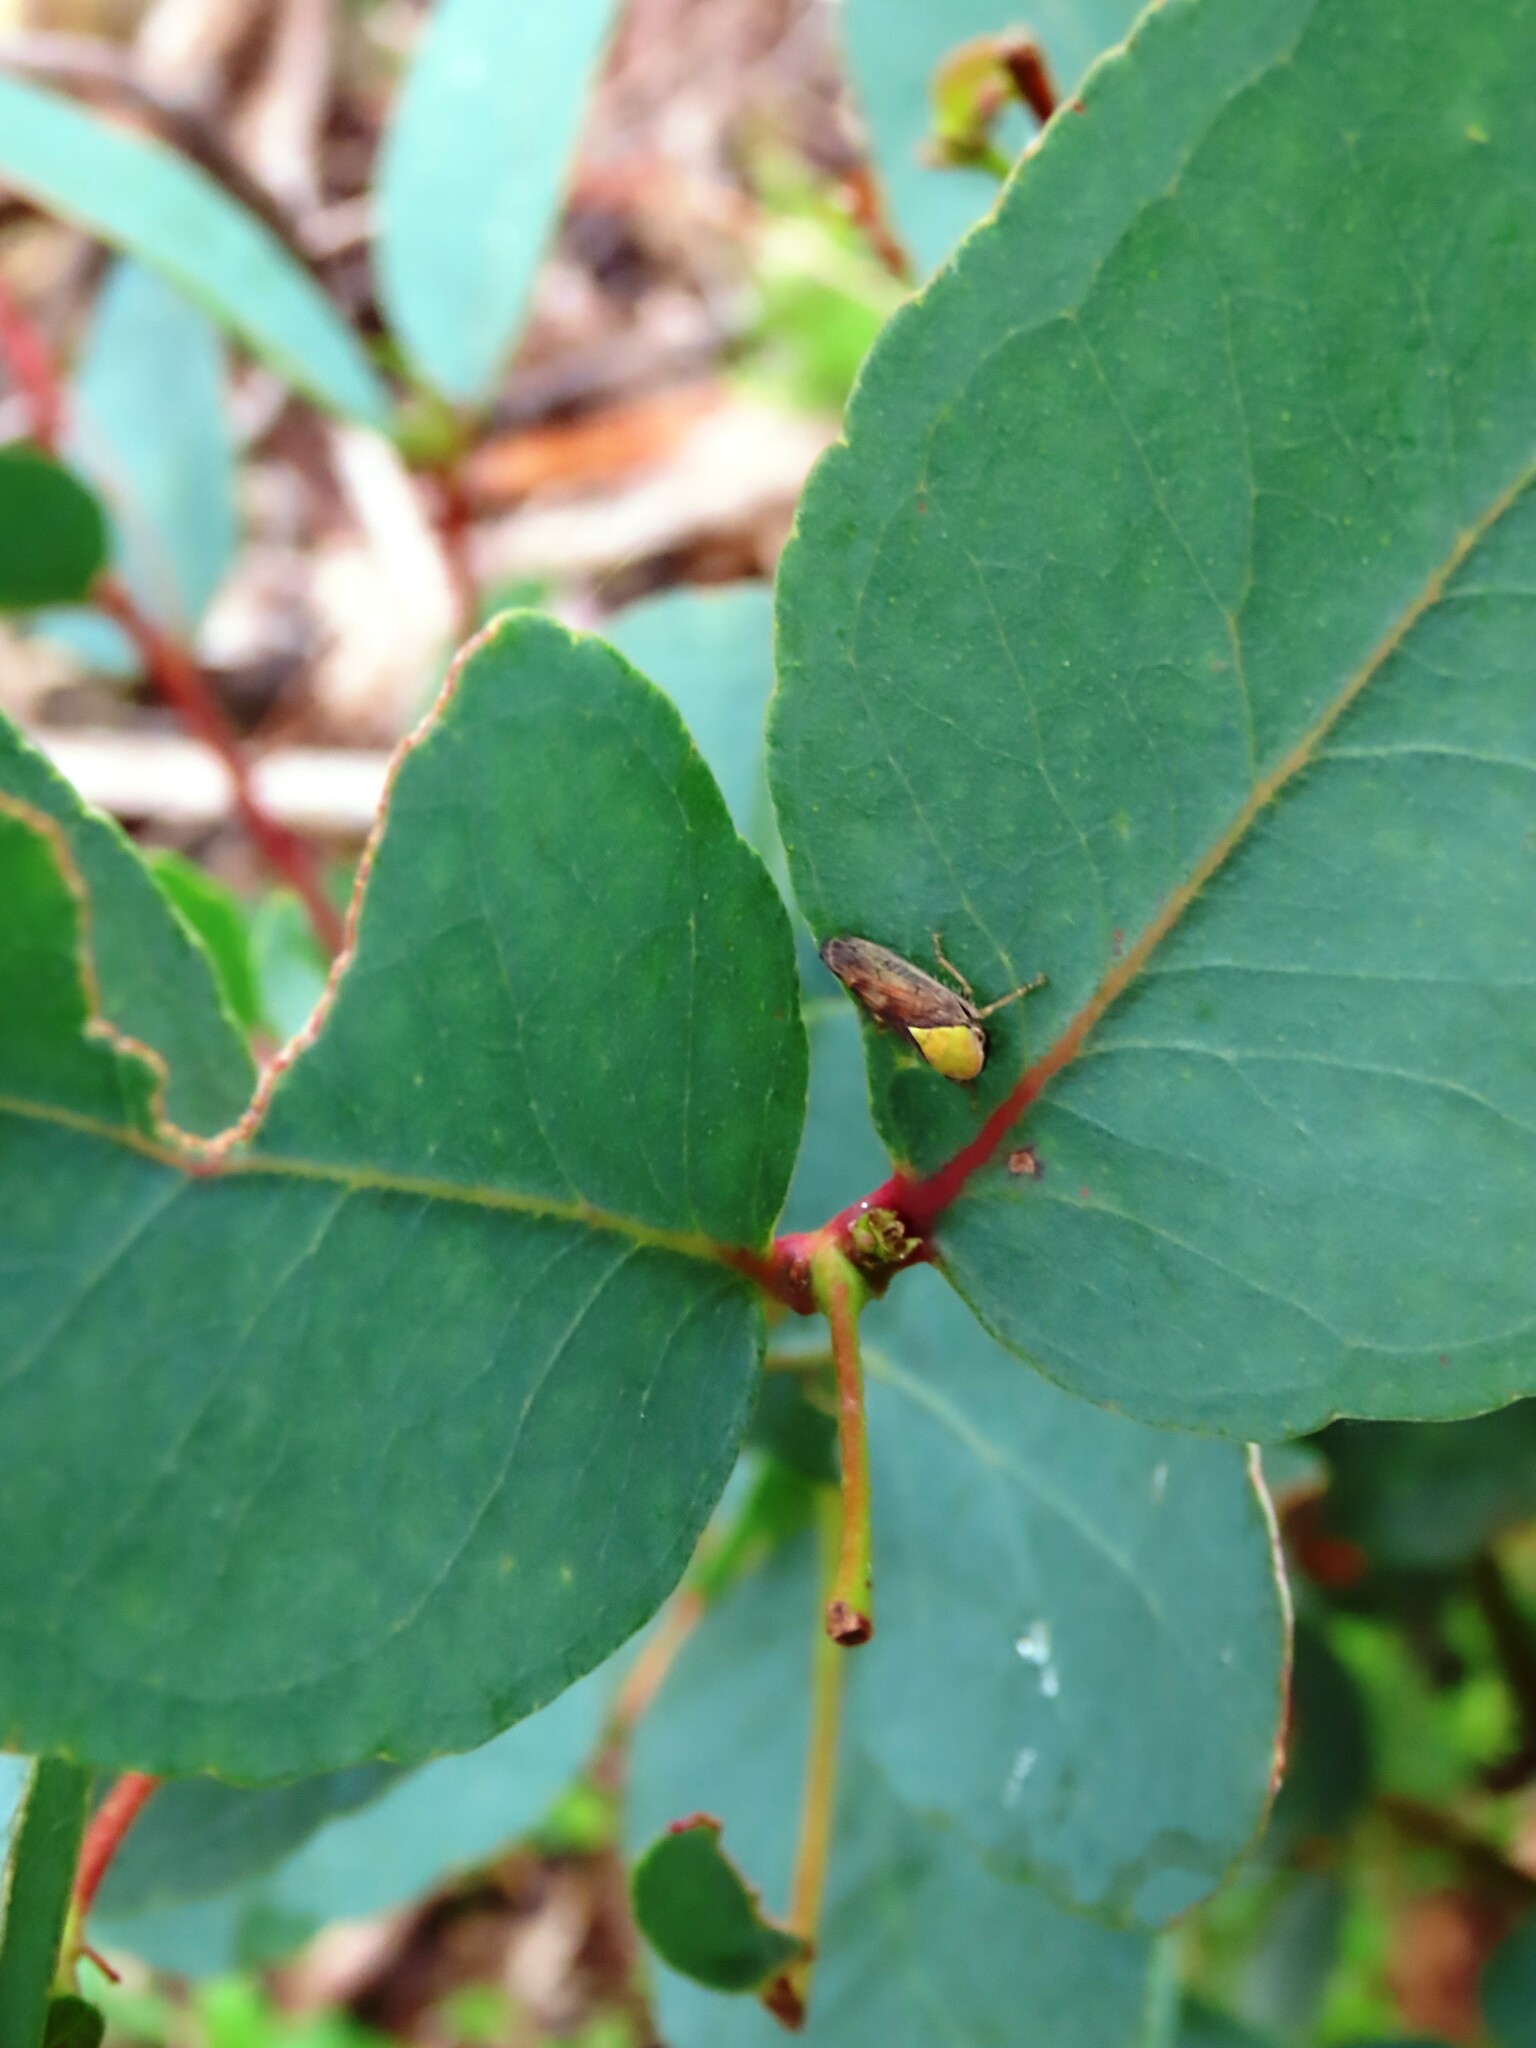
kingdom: Animalia
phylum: Arthropoda
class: Insecta
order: Hemiptera
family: Cicadellidae
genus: Brunotartessus
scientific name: Brunotartessus fulvus
